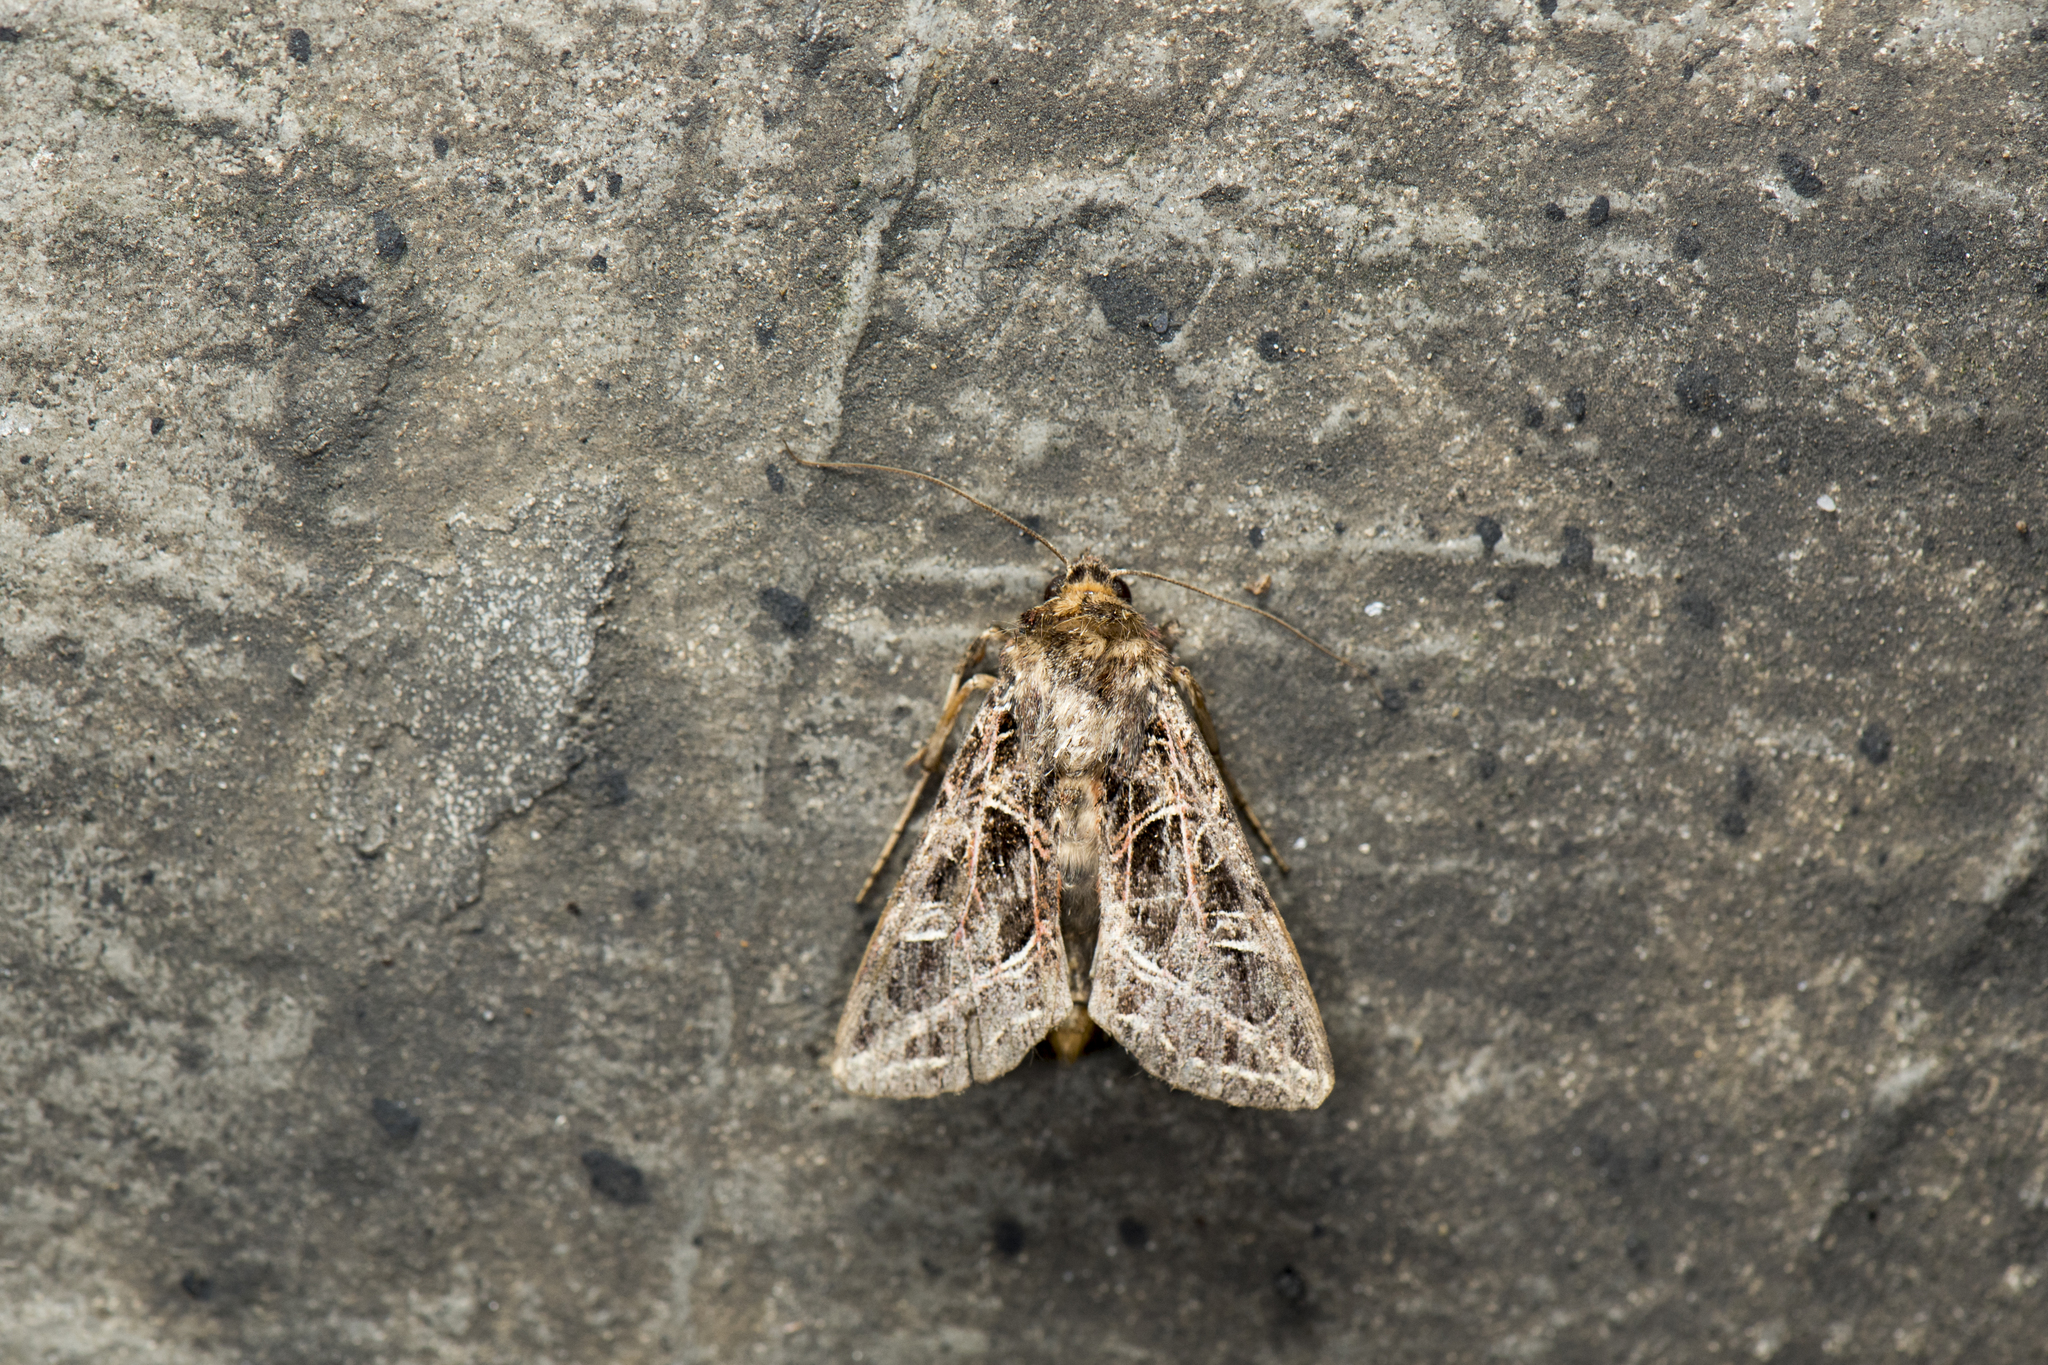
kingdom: Animalia
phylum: Arthropoda
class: Insecta
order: Lepidoptera
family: Noctuidae
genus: Dictyestra
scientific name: Dictyestra dissectus
